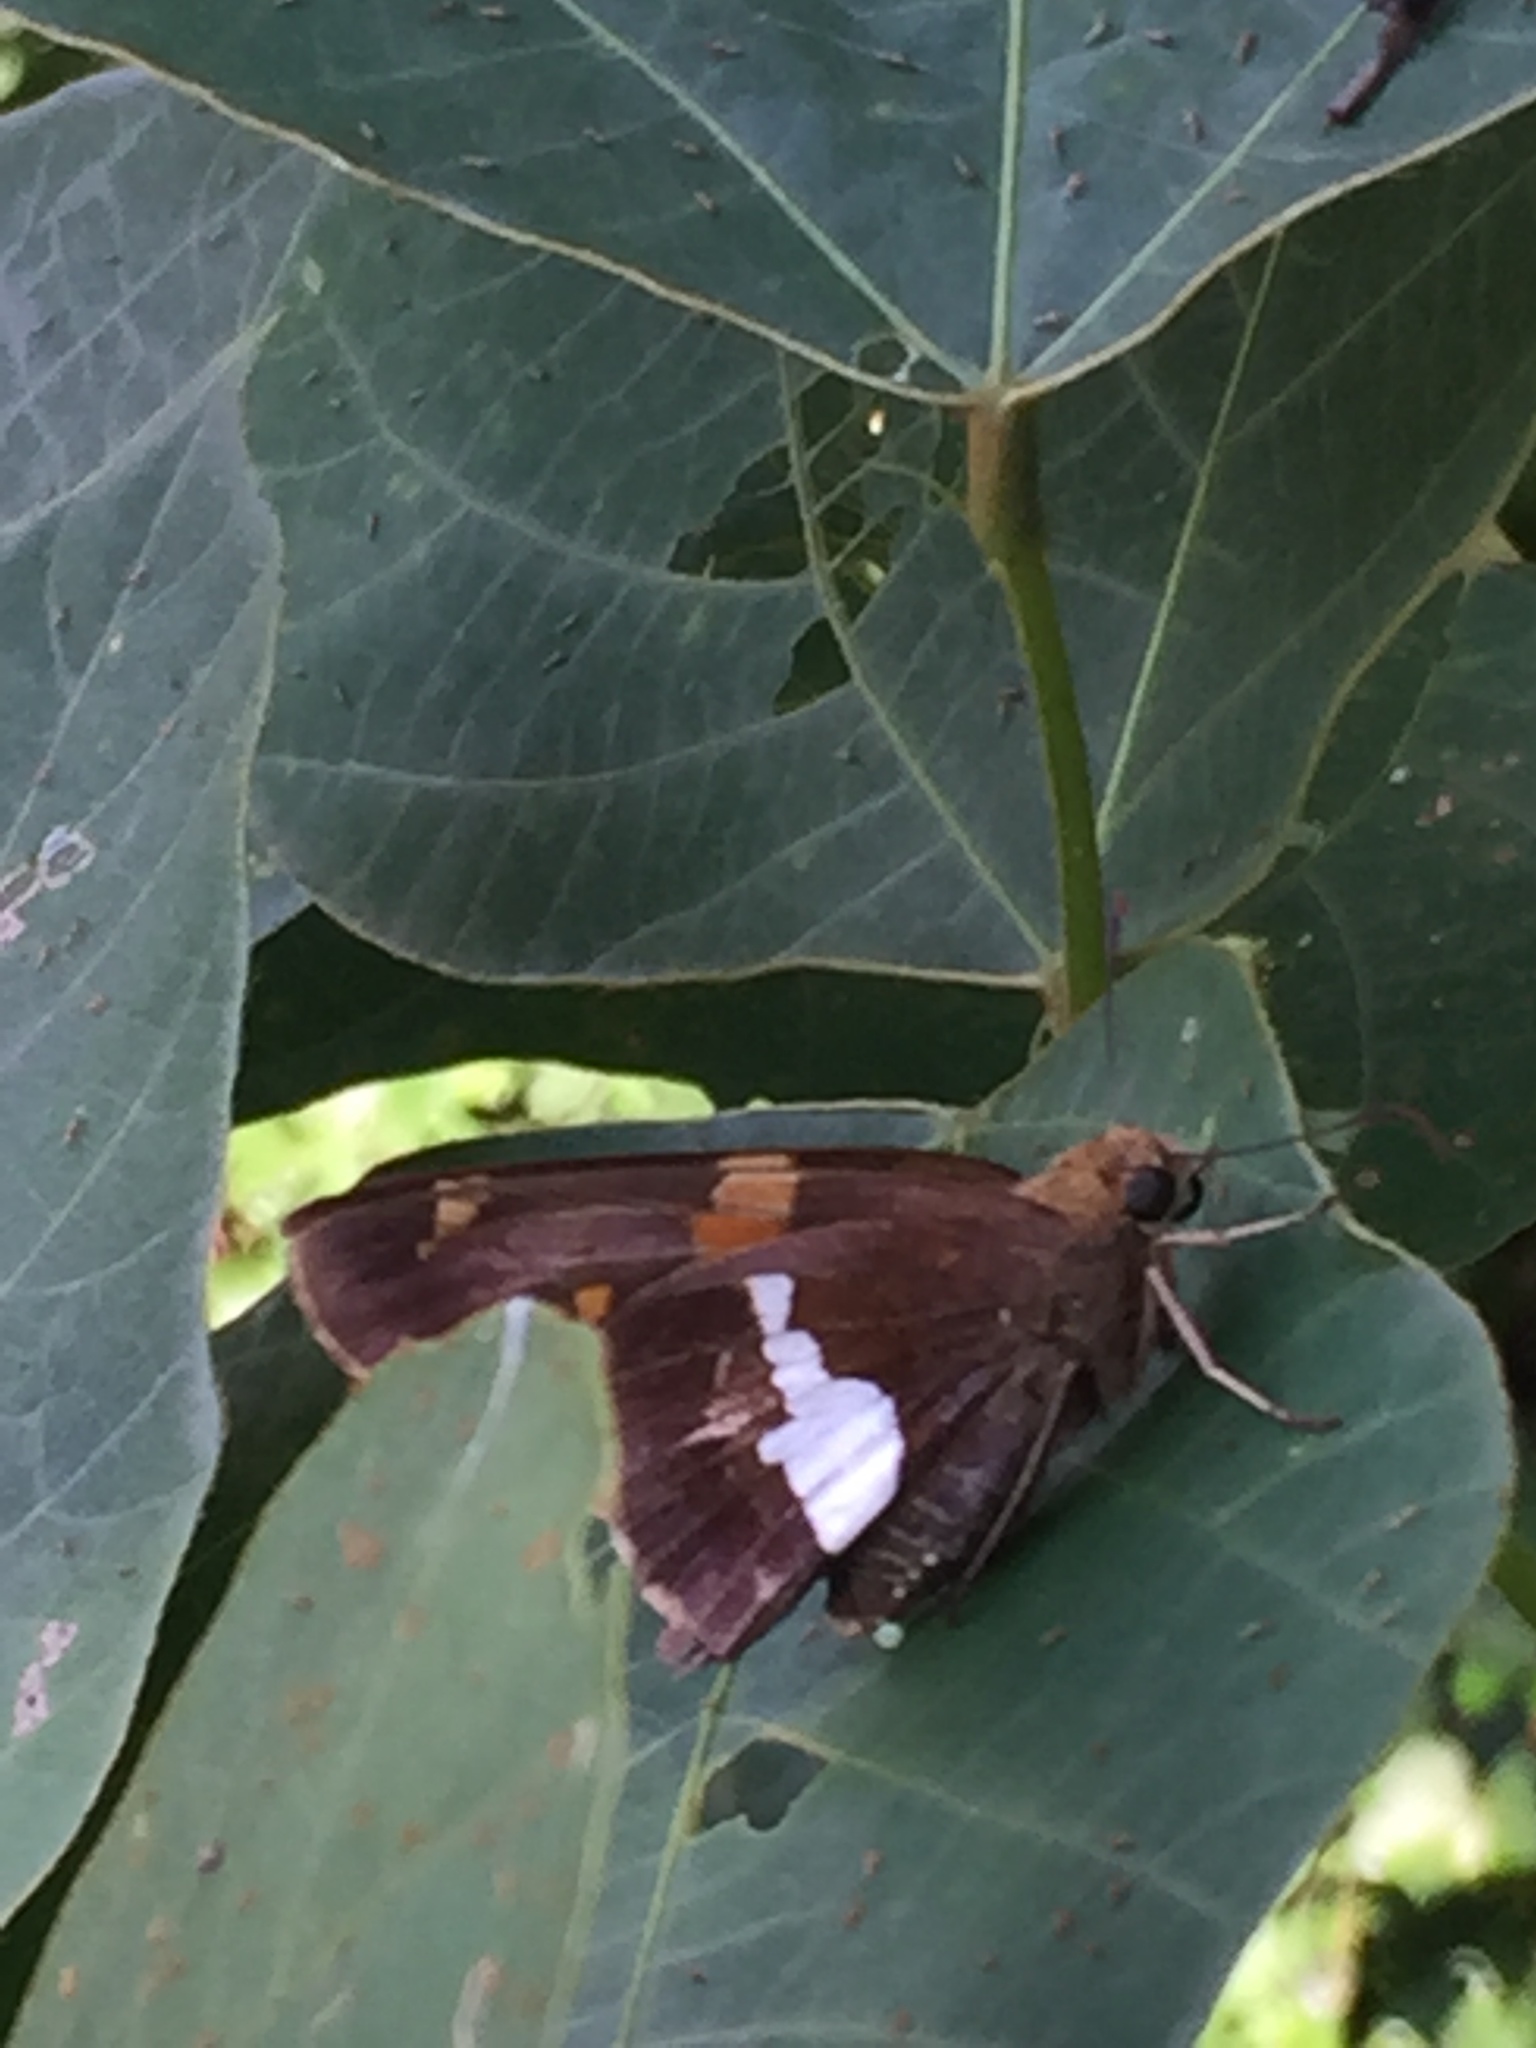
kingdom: Animalia
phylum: Arthropoda
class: Insecta
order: Lepidoptera
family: Hesperiidae
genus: Epargyreus
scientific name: Epargyreus clarus
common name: Silver-spotted skipper
